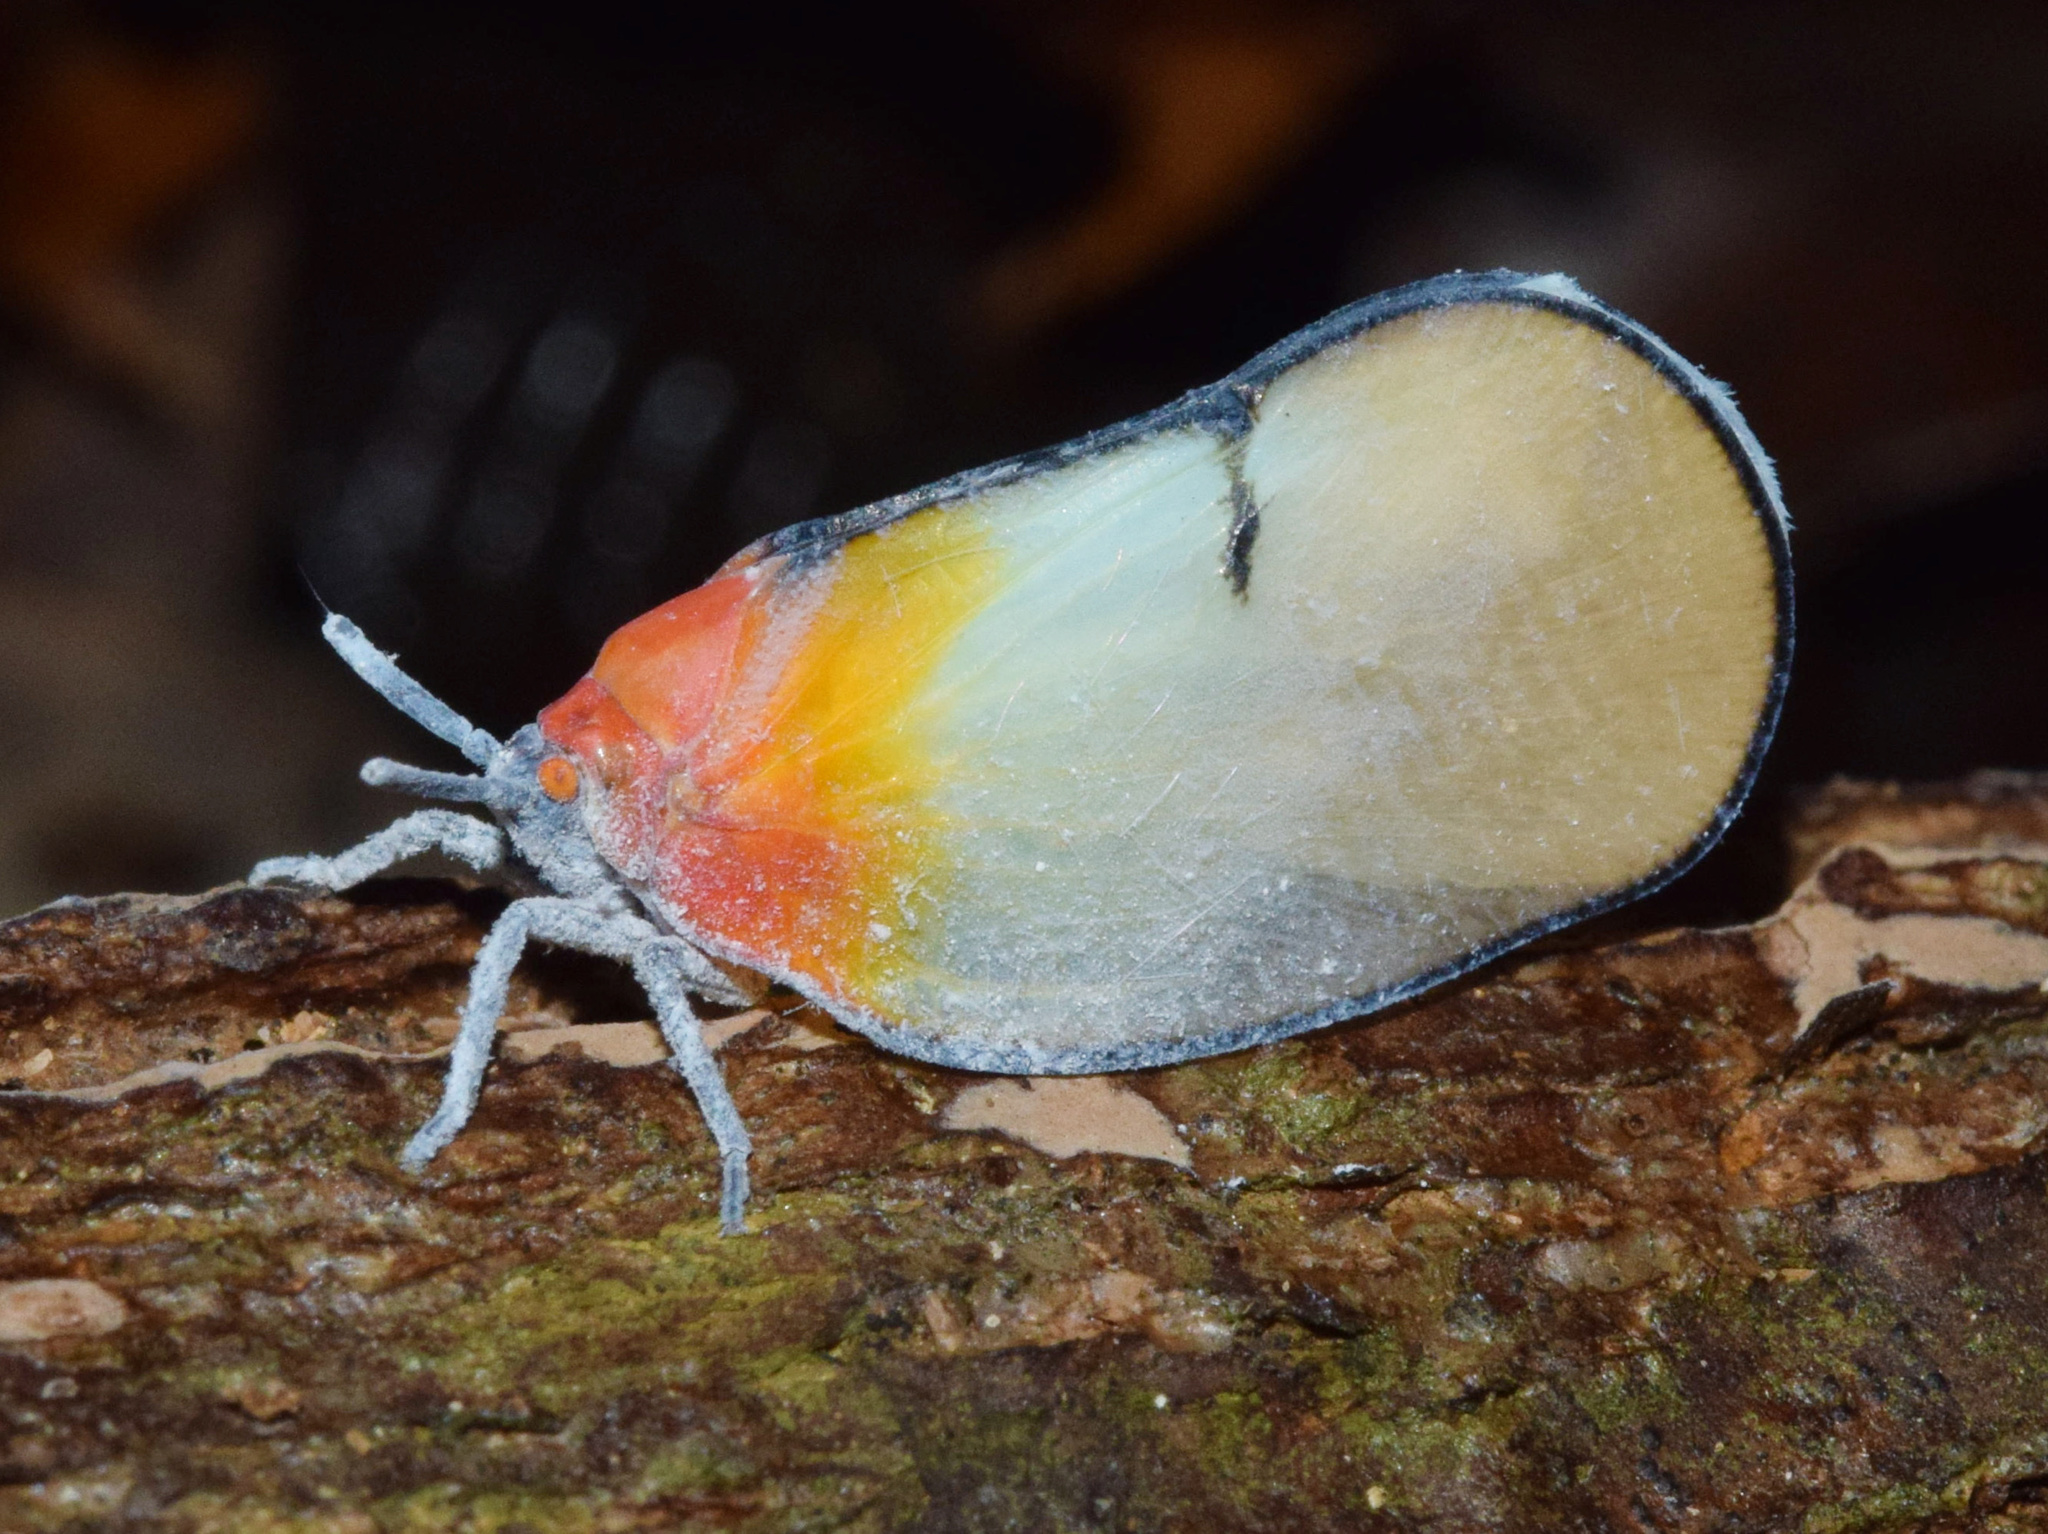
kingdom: Animalia
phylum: Arthropoda
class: Insecta
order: Hemiptera
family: Flatidae
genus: Ityraea
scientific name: Ityraea nigrocincta
